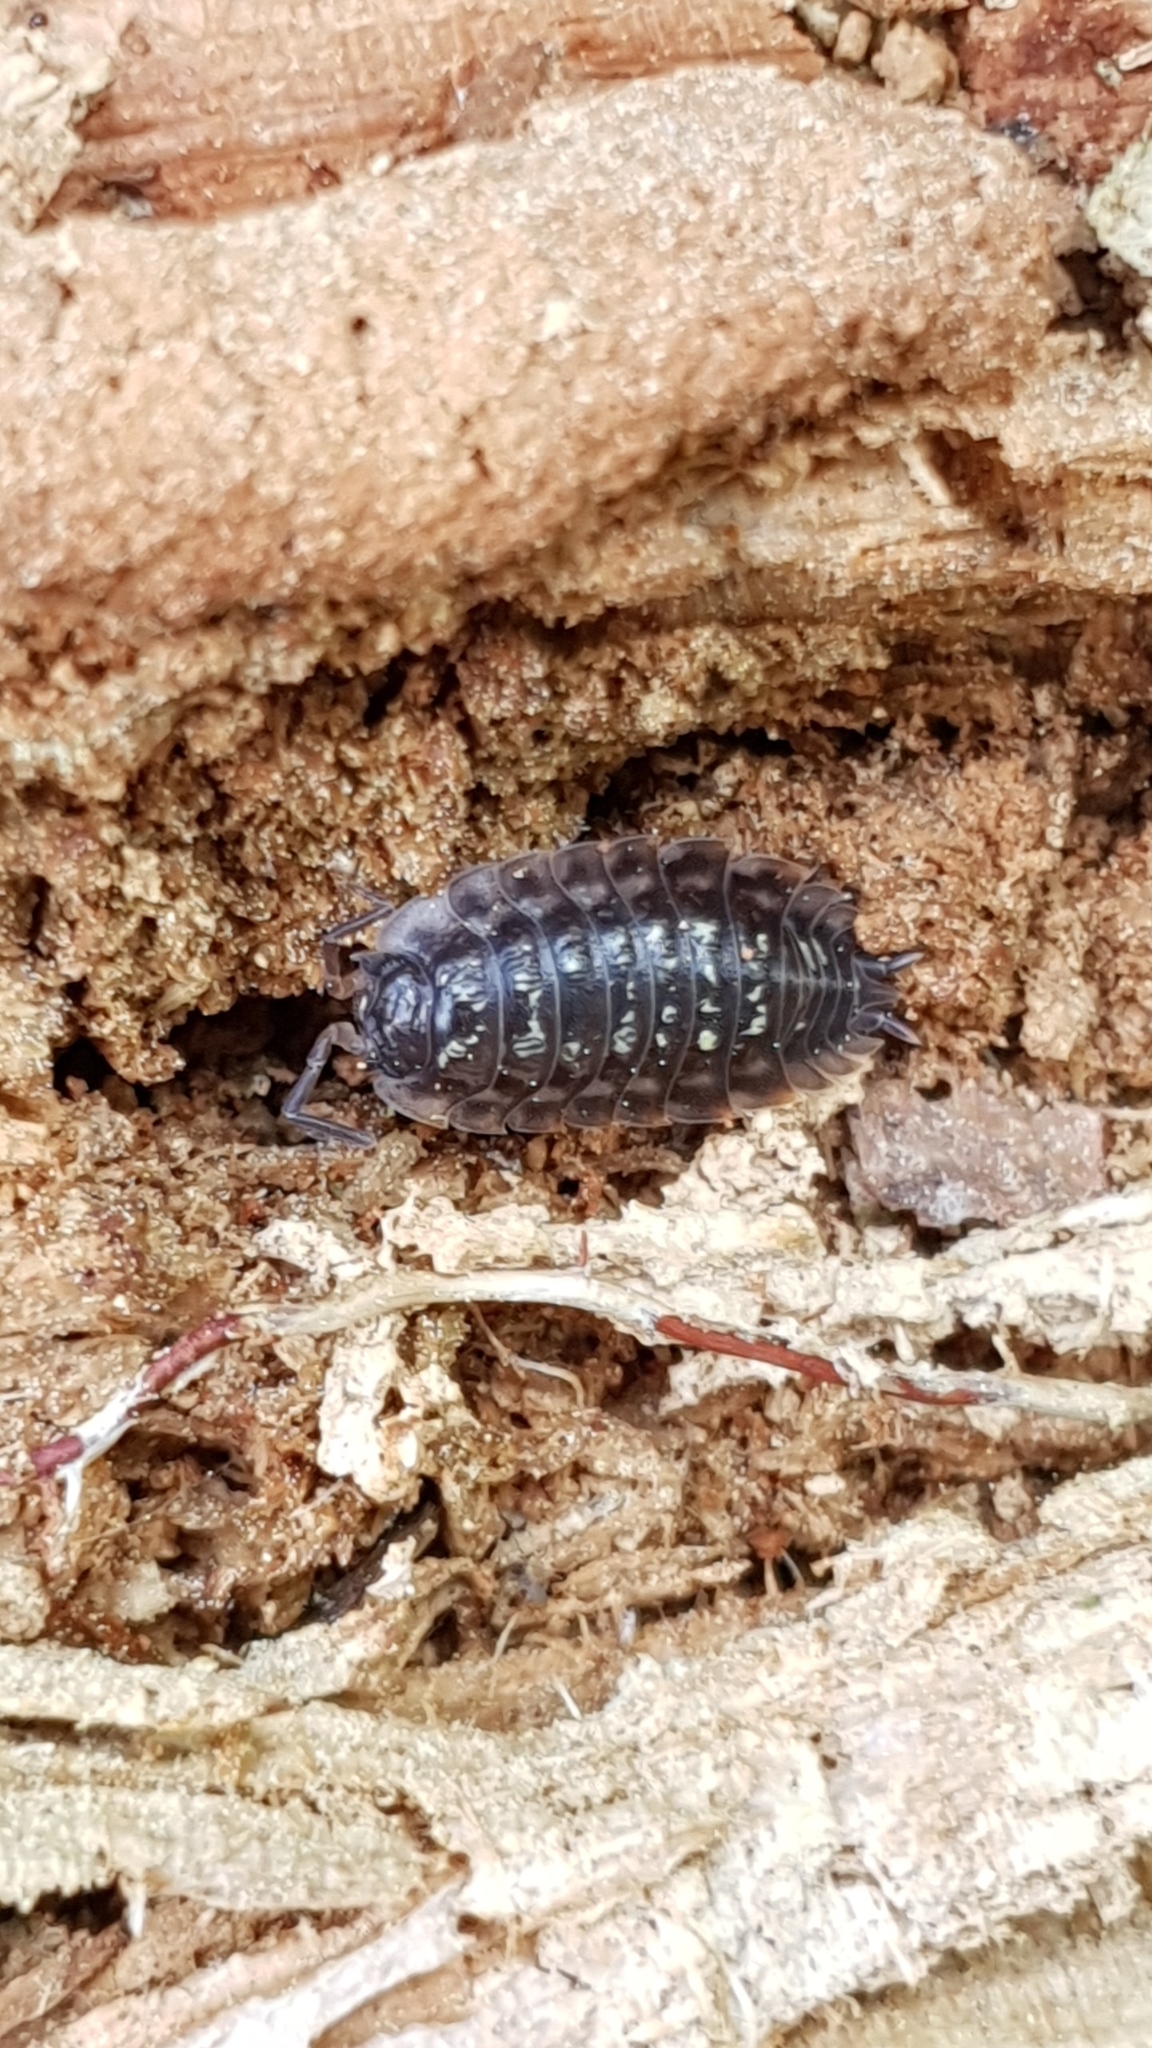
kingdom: Animalia
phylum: Arthropoda
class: Malacostraca
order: Isopoda
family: Oniscidae
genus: Oniscus
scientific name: Oniscus asellus
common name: Common shiny woodlouse
